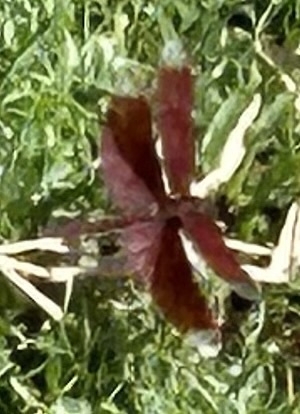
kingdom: Animalia
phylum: Arthropoda
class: Insecta
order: Odonata
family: Libellulidae
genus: Neurothemis
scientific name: Neurothemis fulvia
